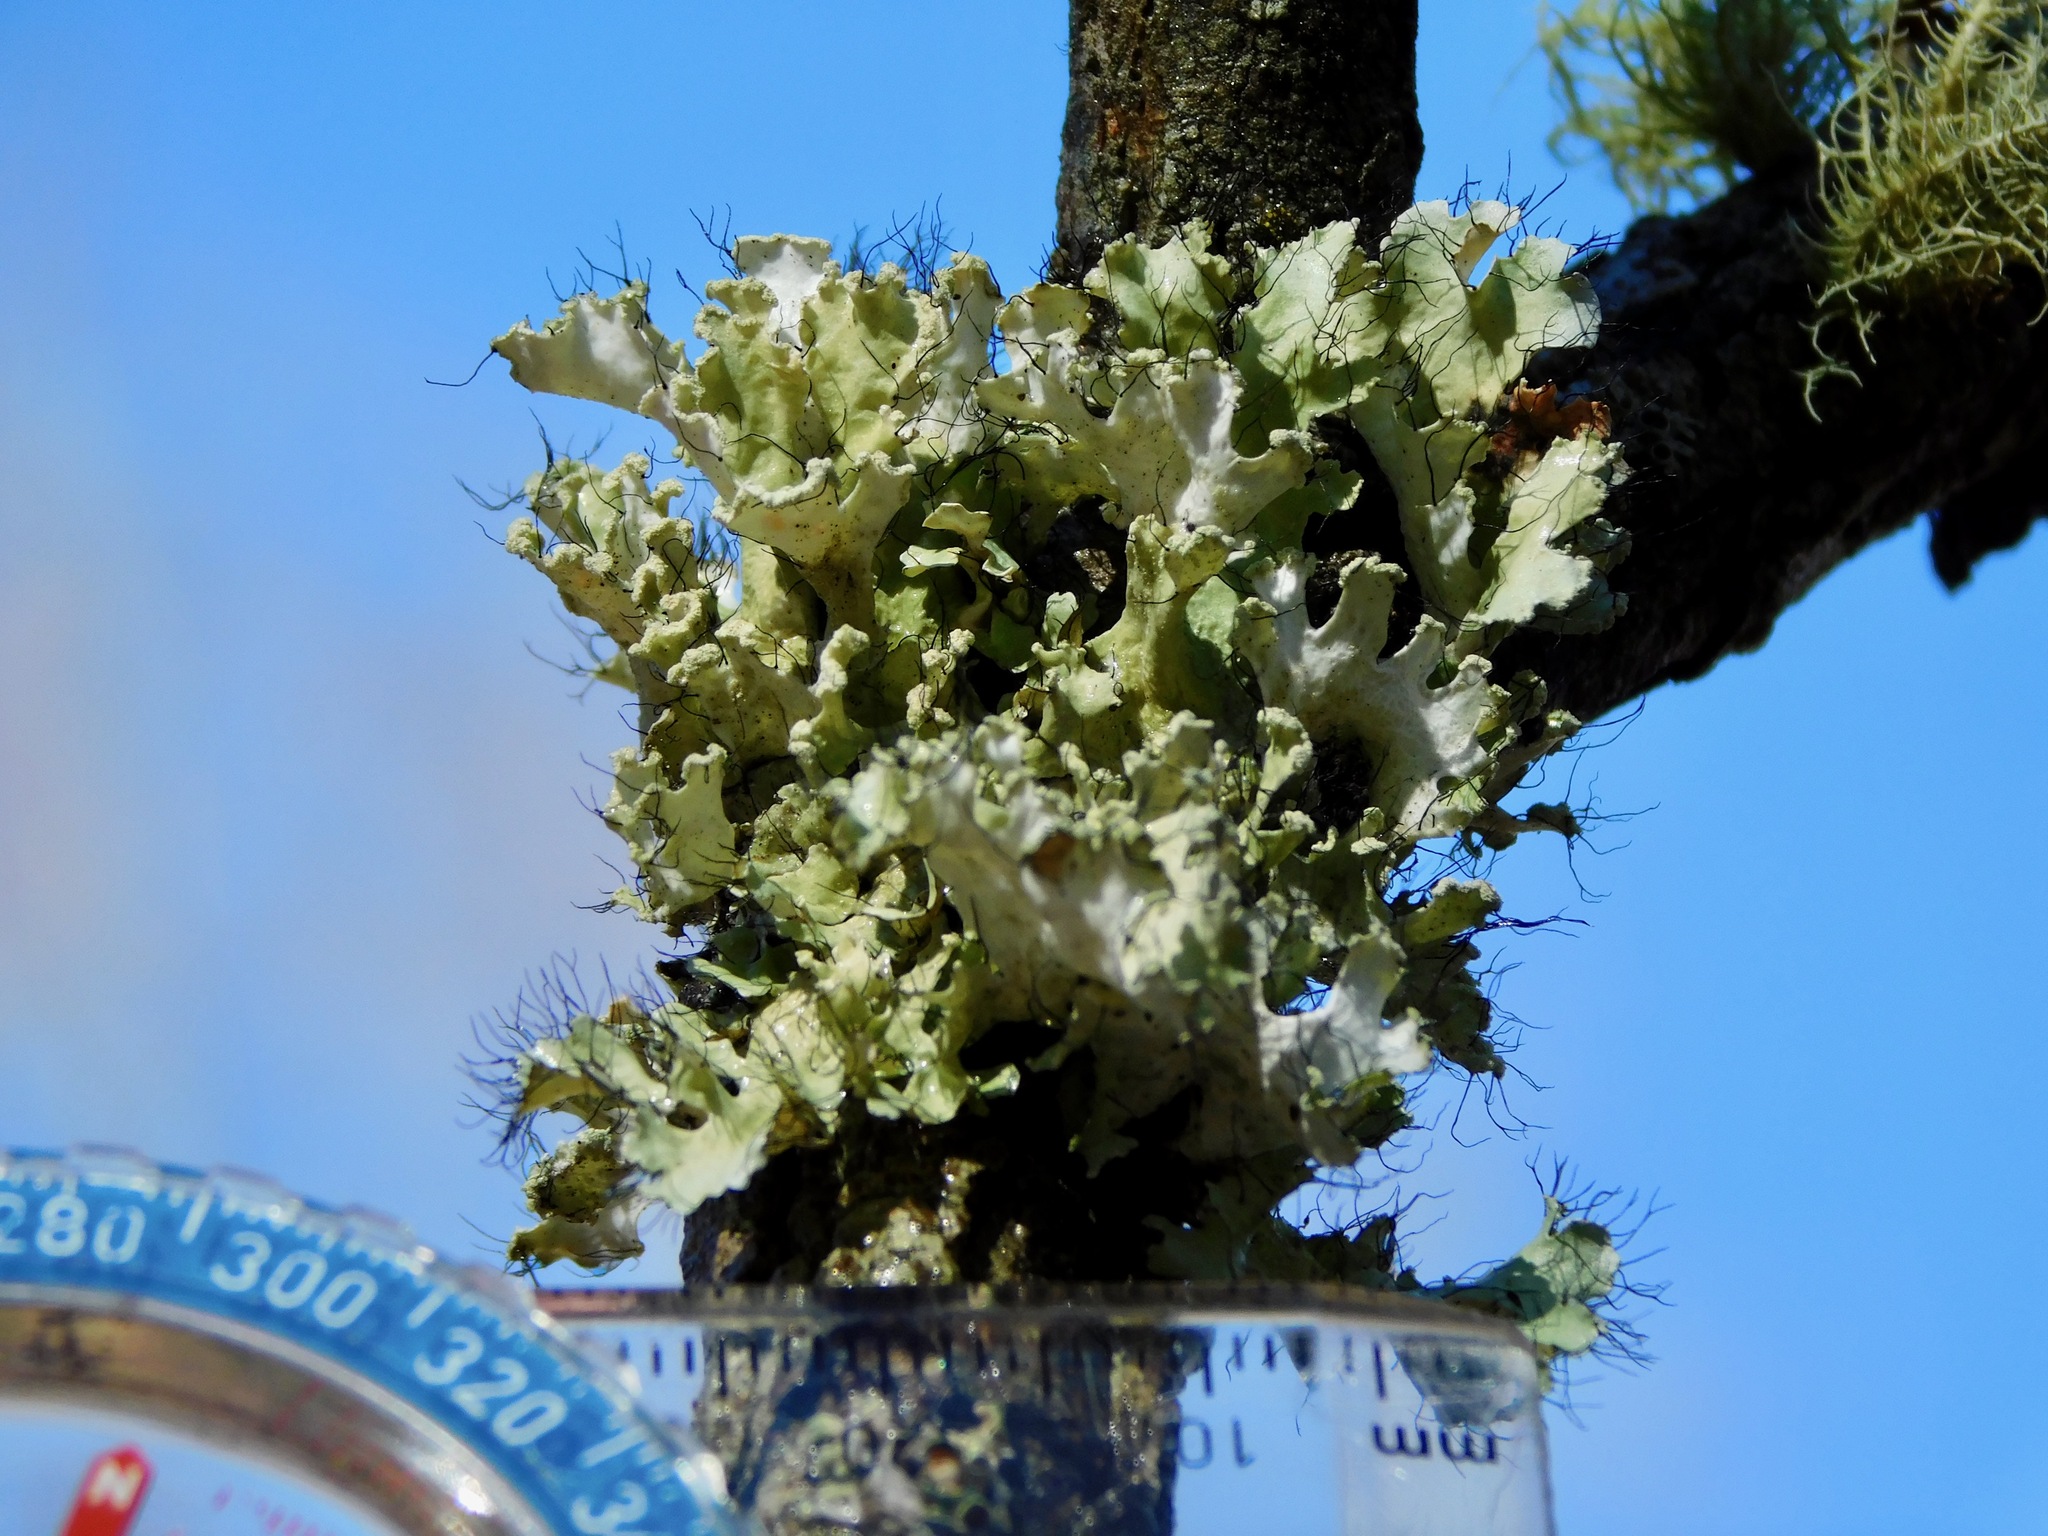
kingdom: Fungi
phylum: Ascomycota
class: Lecanoromycetes
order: Lecanorales
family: Parmeliaceae
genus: Parmotrema
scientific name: Parmotrema hypotropum
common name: Powdered ruffle lichen
